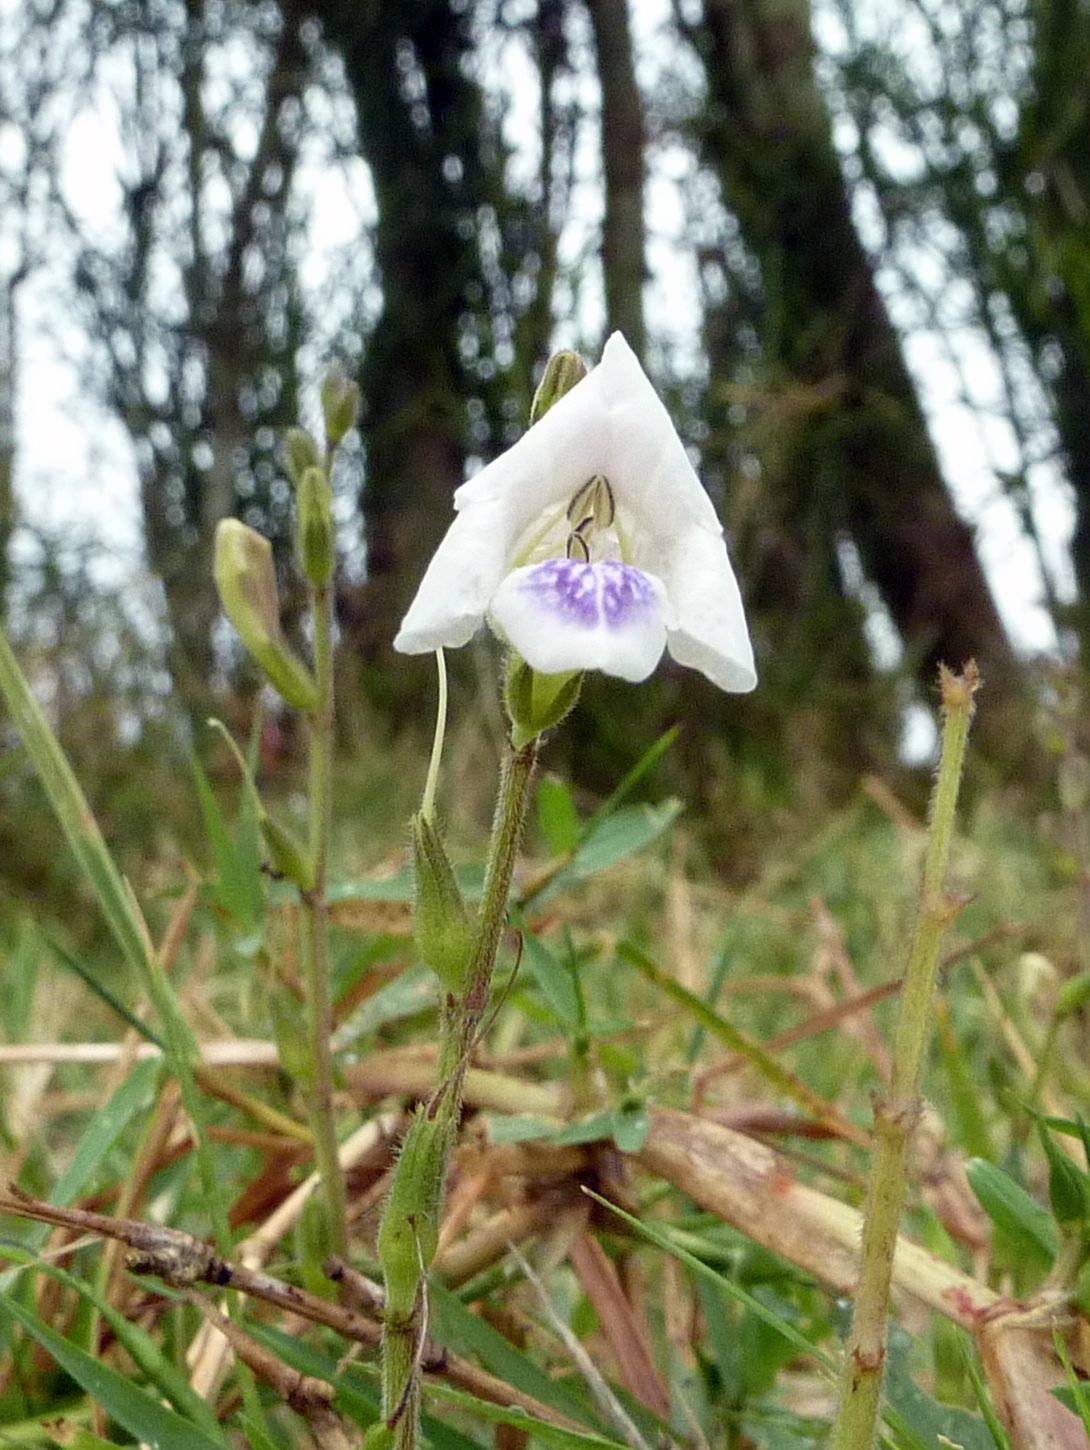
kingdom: Plantae
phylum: Tracheophyta
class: Magnoliopsida
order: Lamiales
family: Acanthaceae
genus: Asystasia
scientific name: Asystasia intrusa
